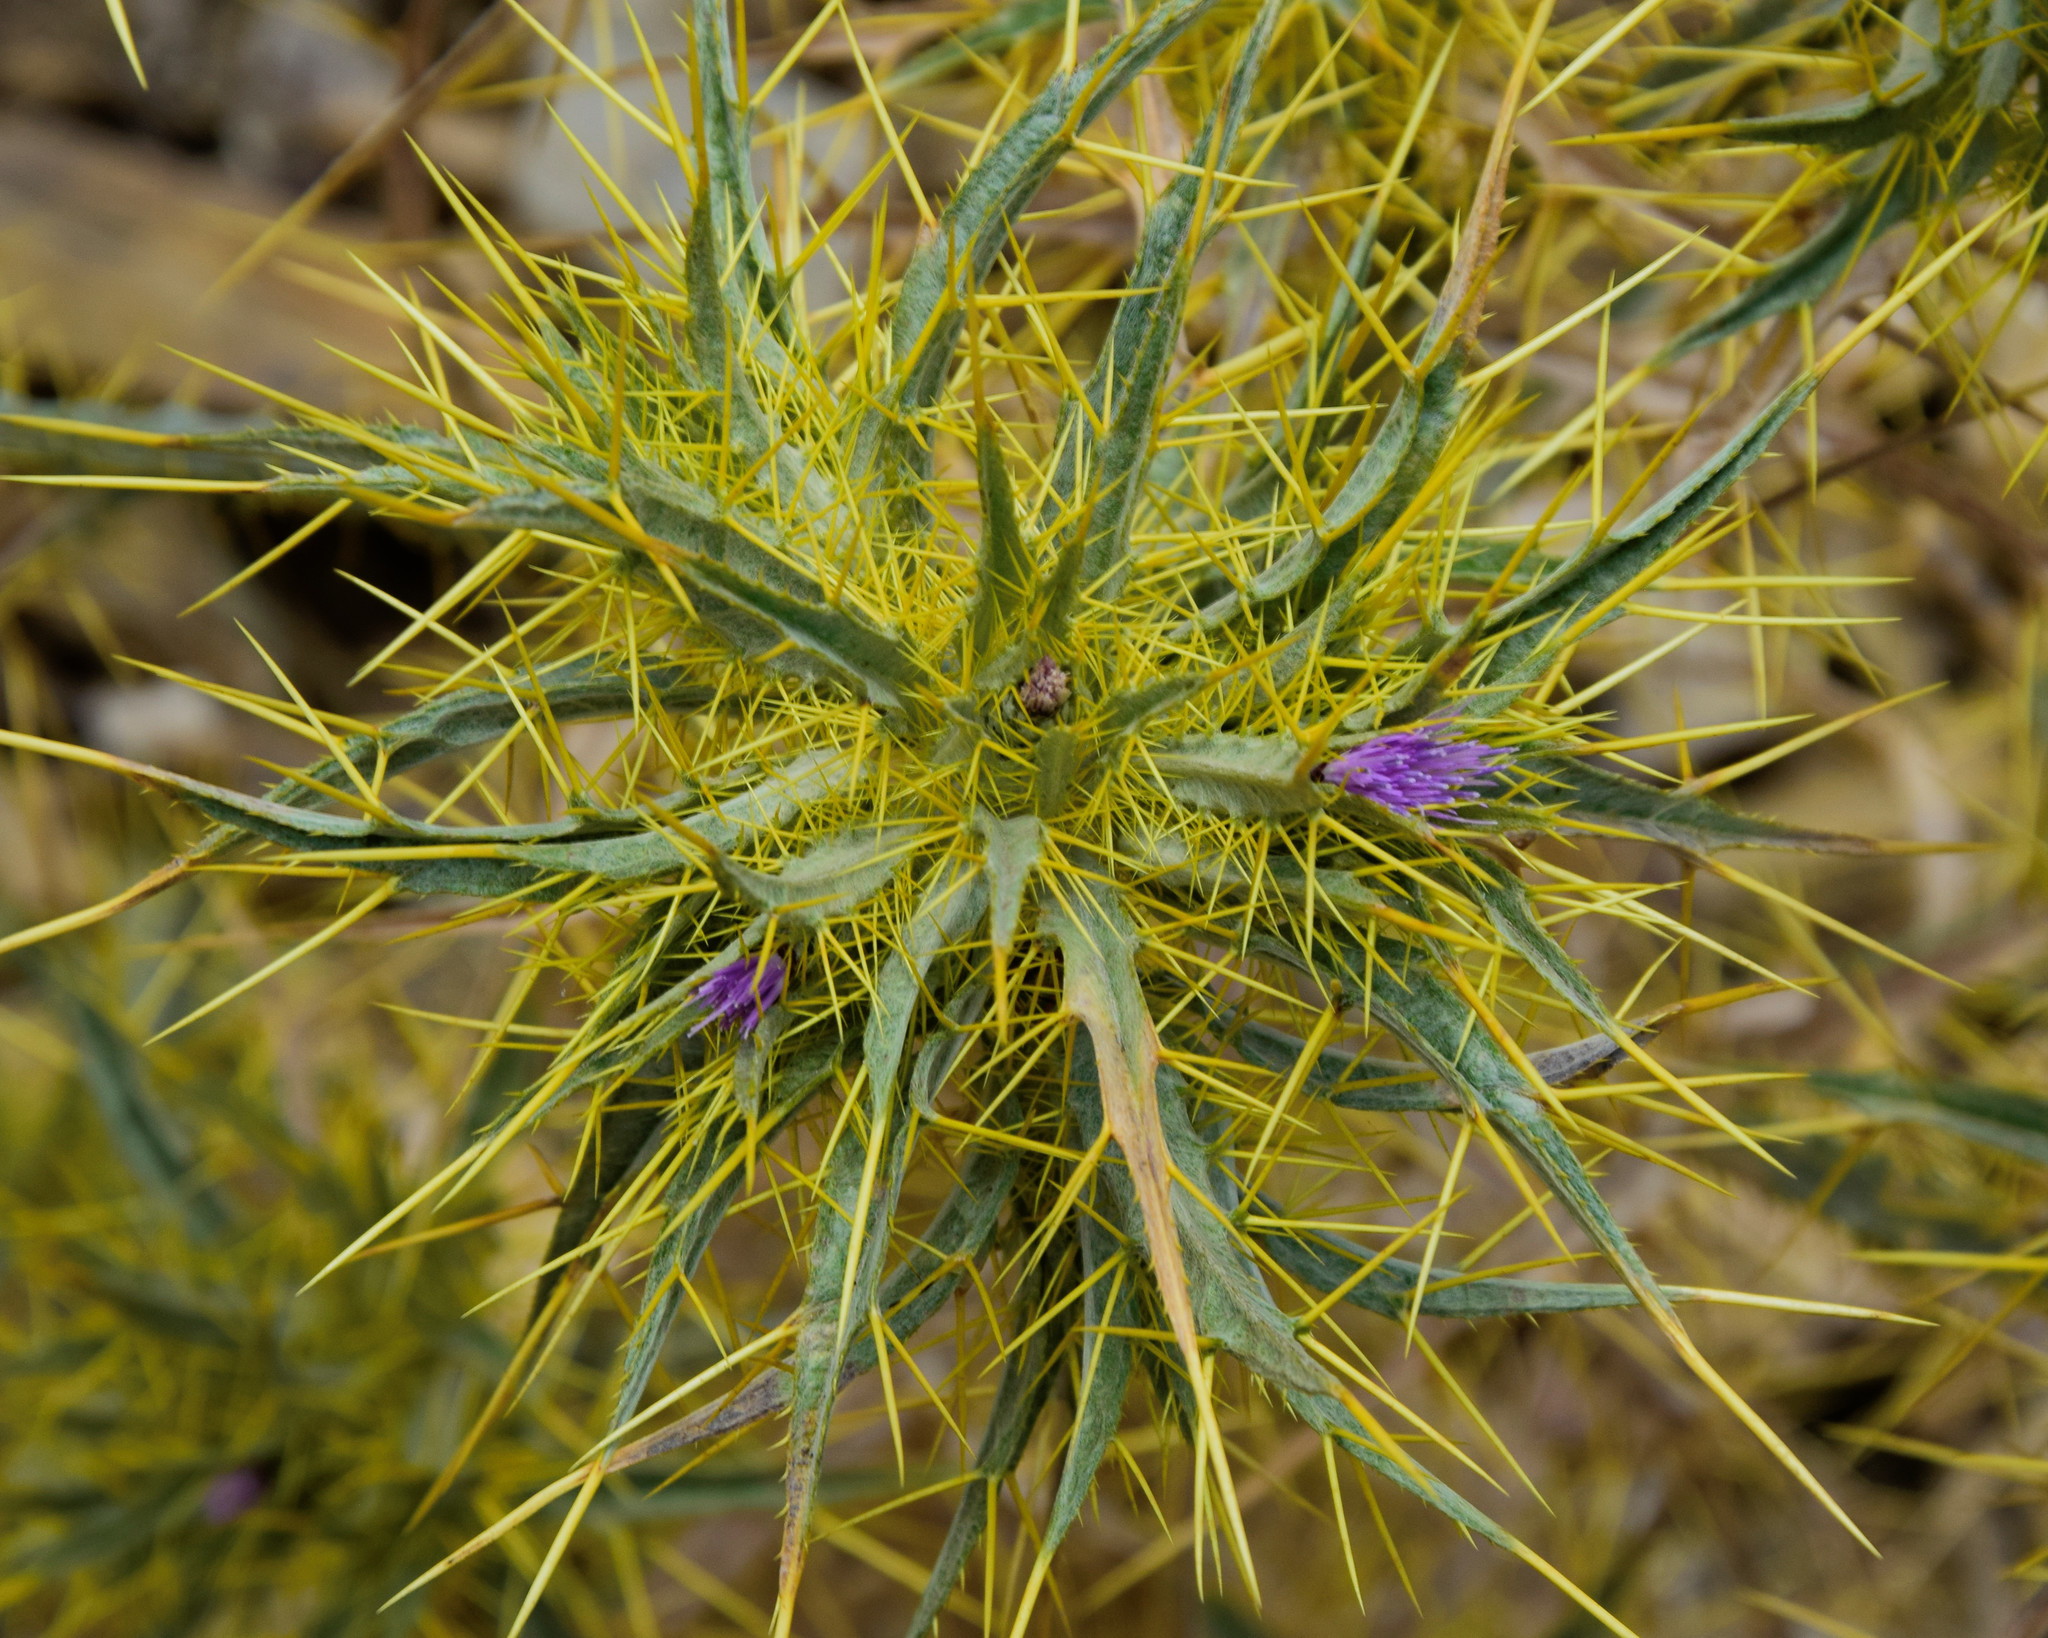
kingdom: Plantae
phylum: Tracheophyta
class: Magnoliopsida
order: Asterales
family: Asteraceae
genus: Picnomon
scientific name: Picnomon acarna
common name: Soldier thistle
